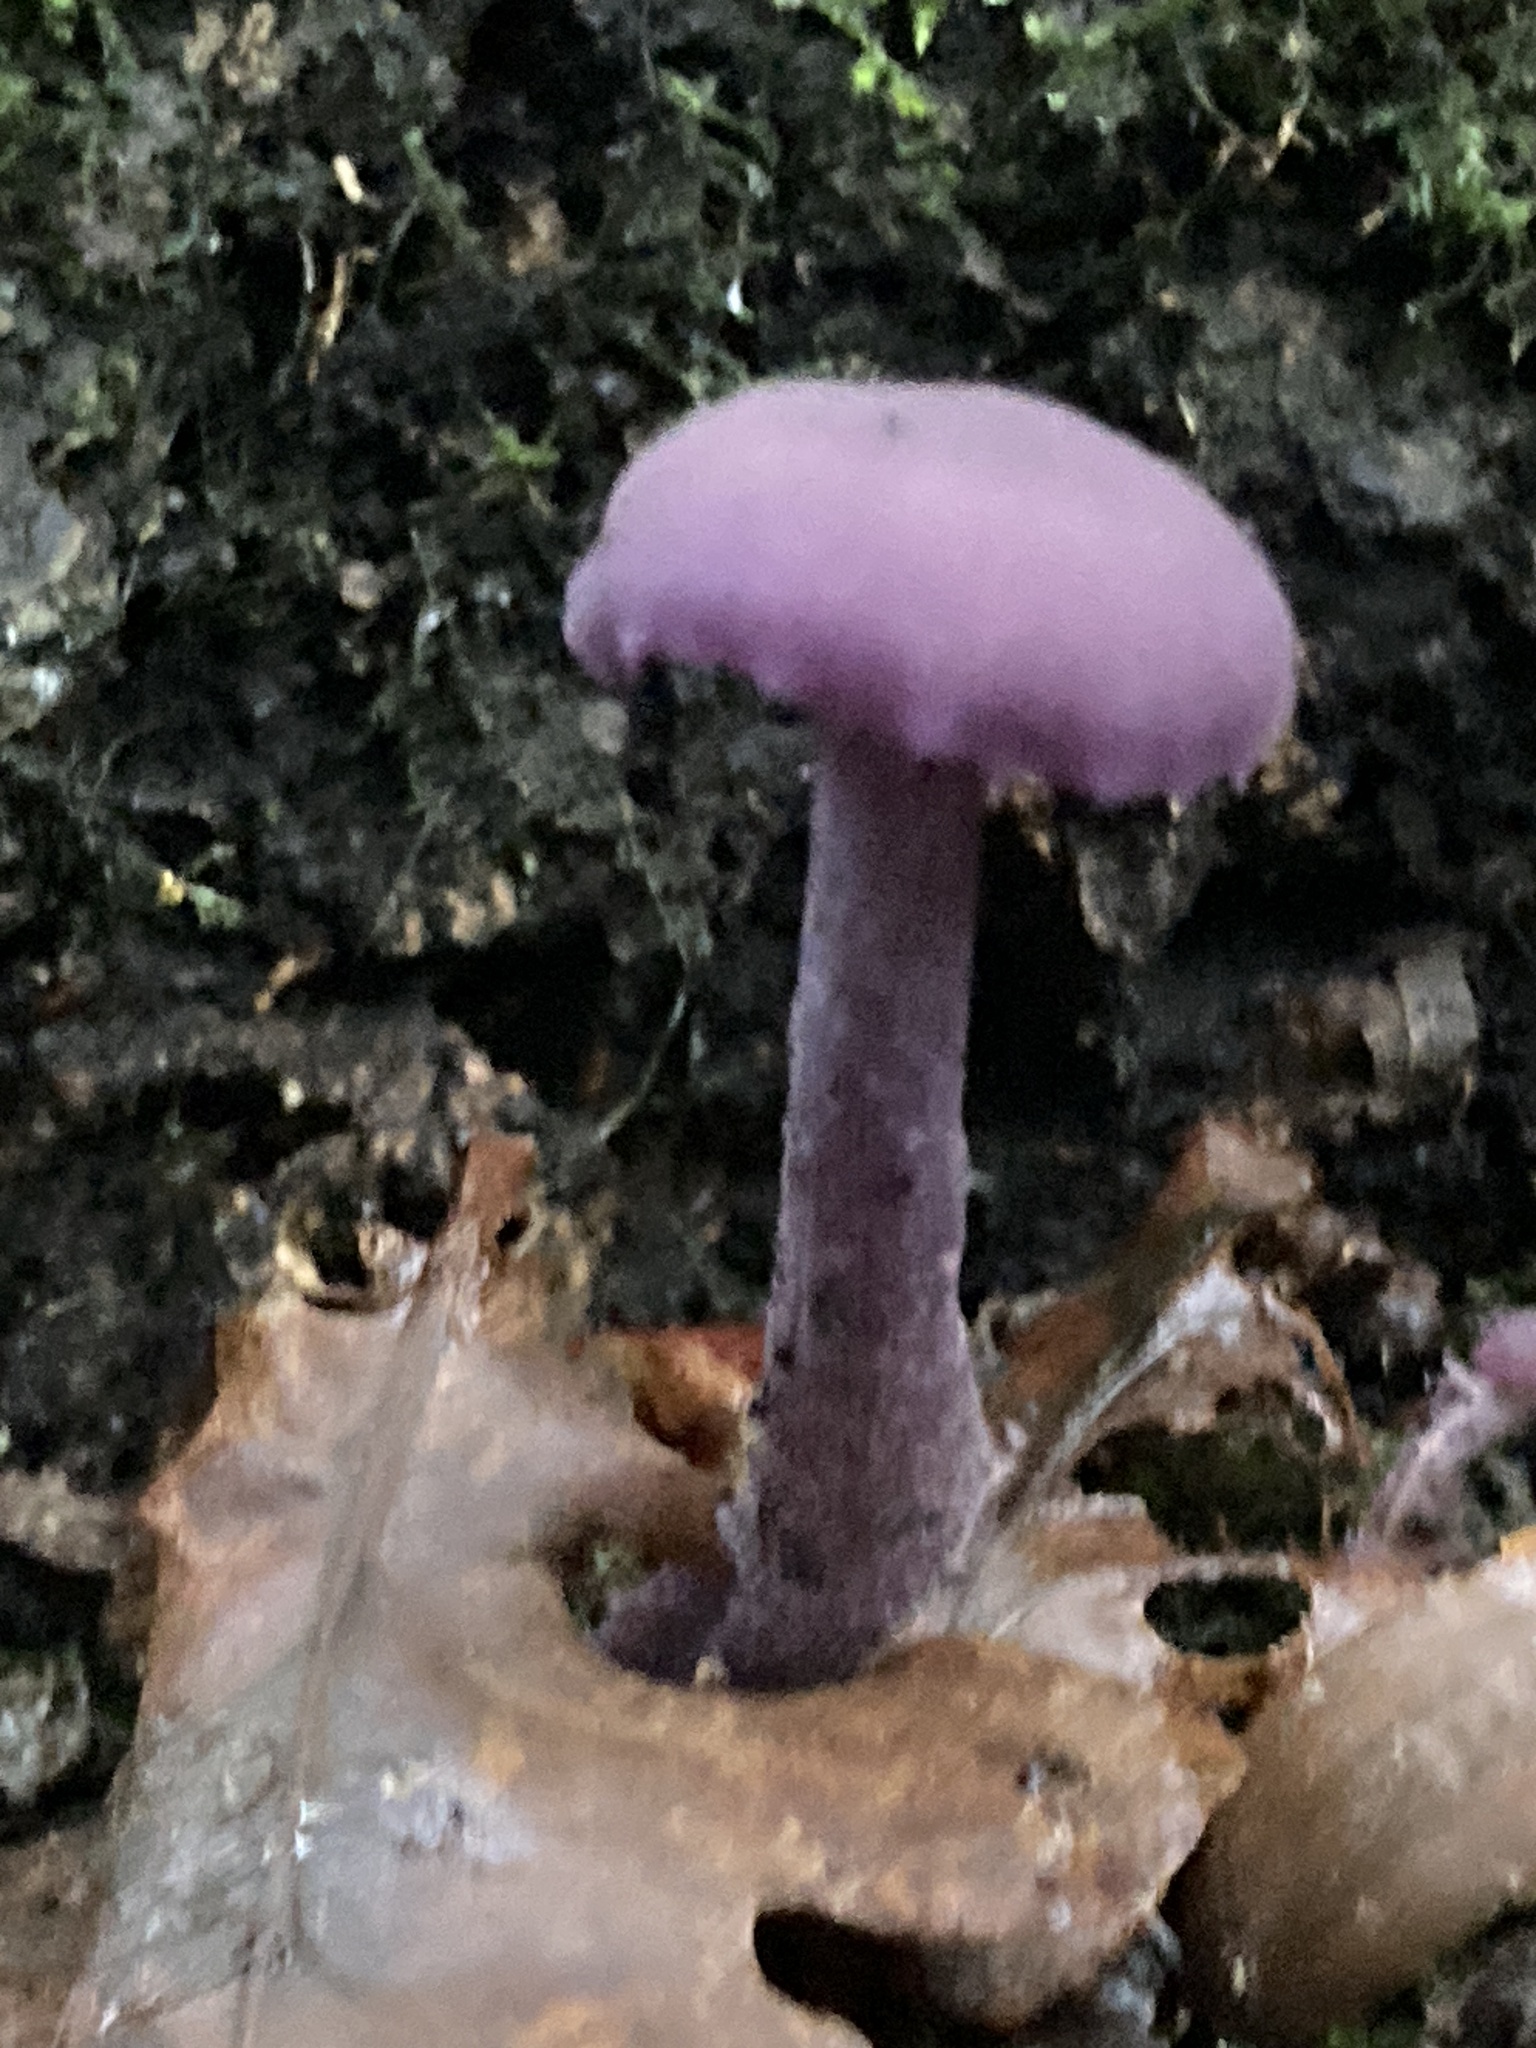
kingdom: Fungi
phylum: Basidiomycota
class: Agaricomycetes
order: Agaricales
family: Hydnangiaceae
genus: Laccaria
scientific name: Laccaria amethystina
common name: Amethyst deceiver
